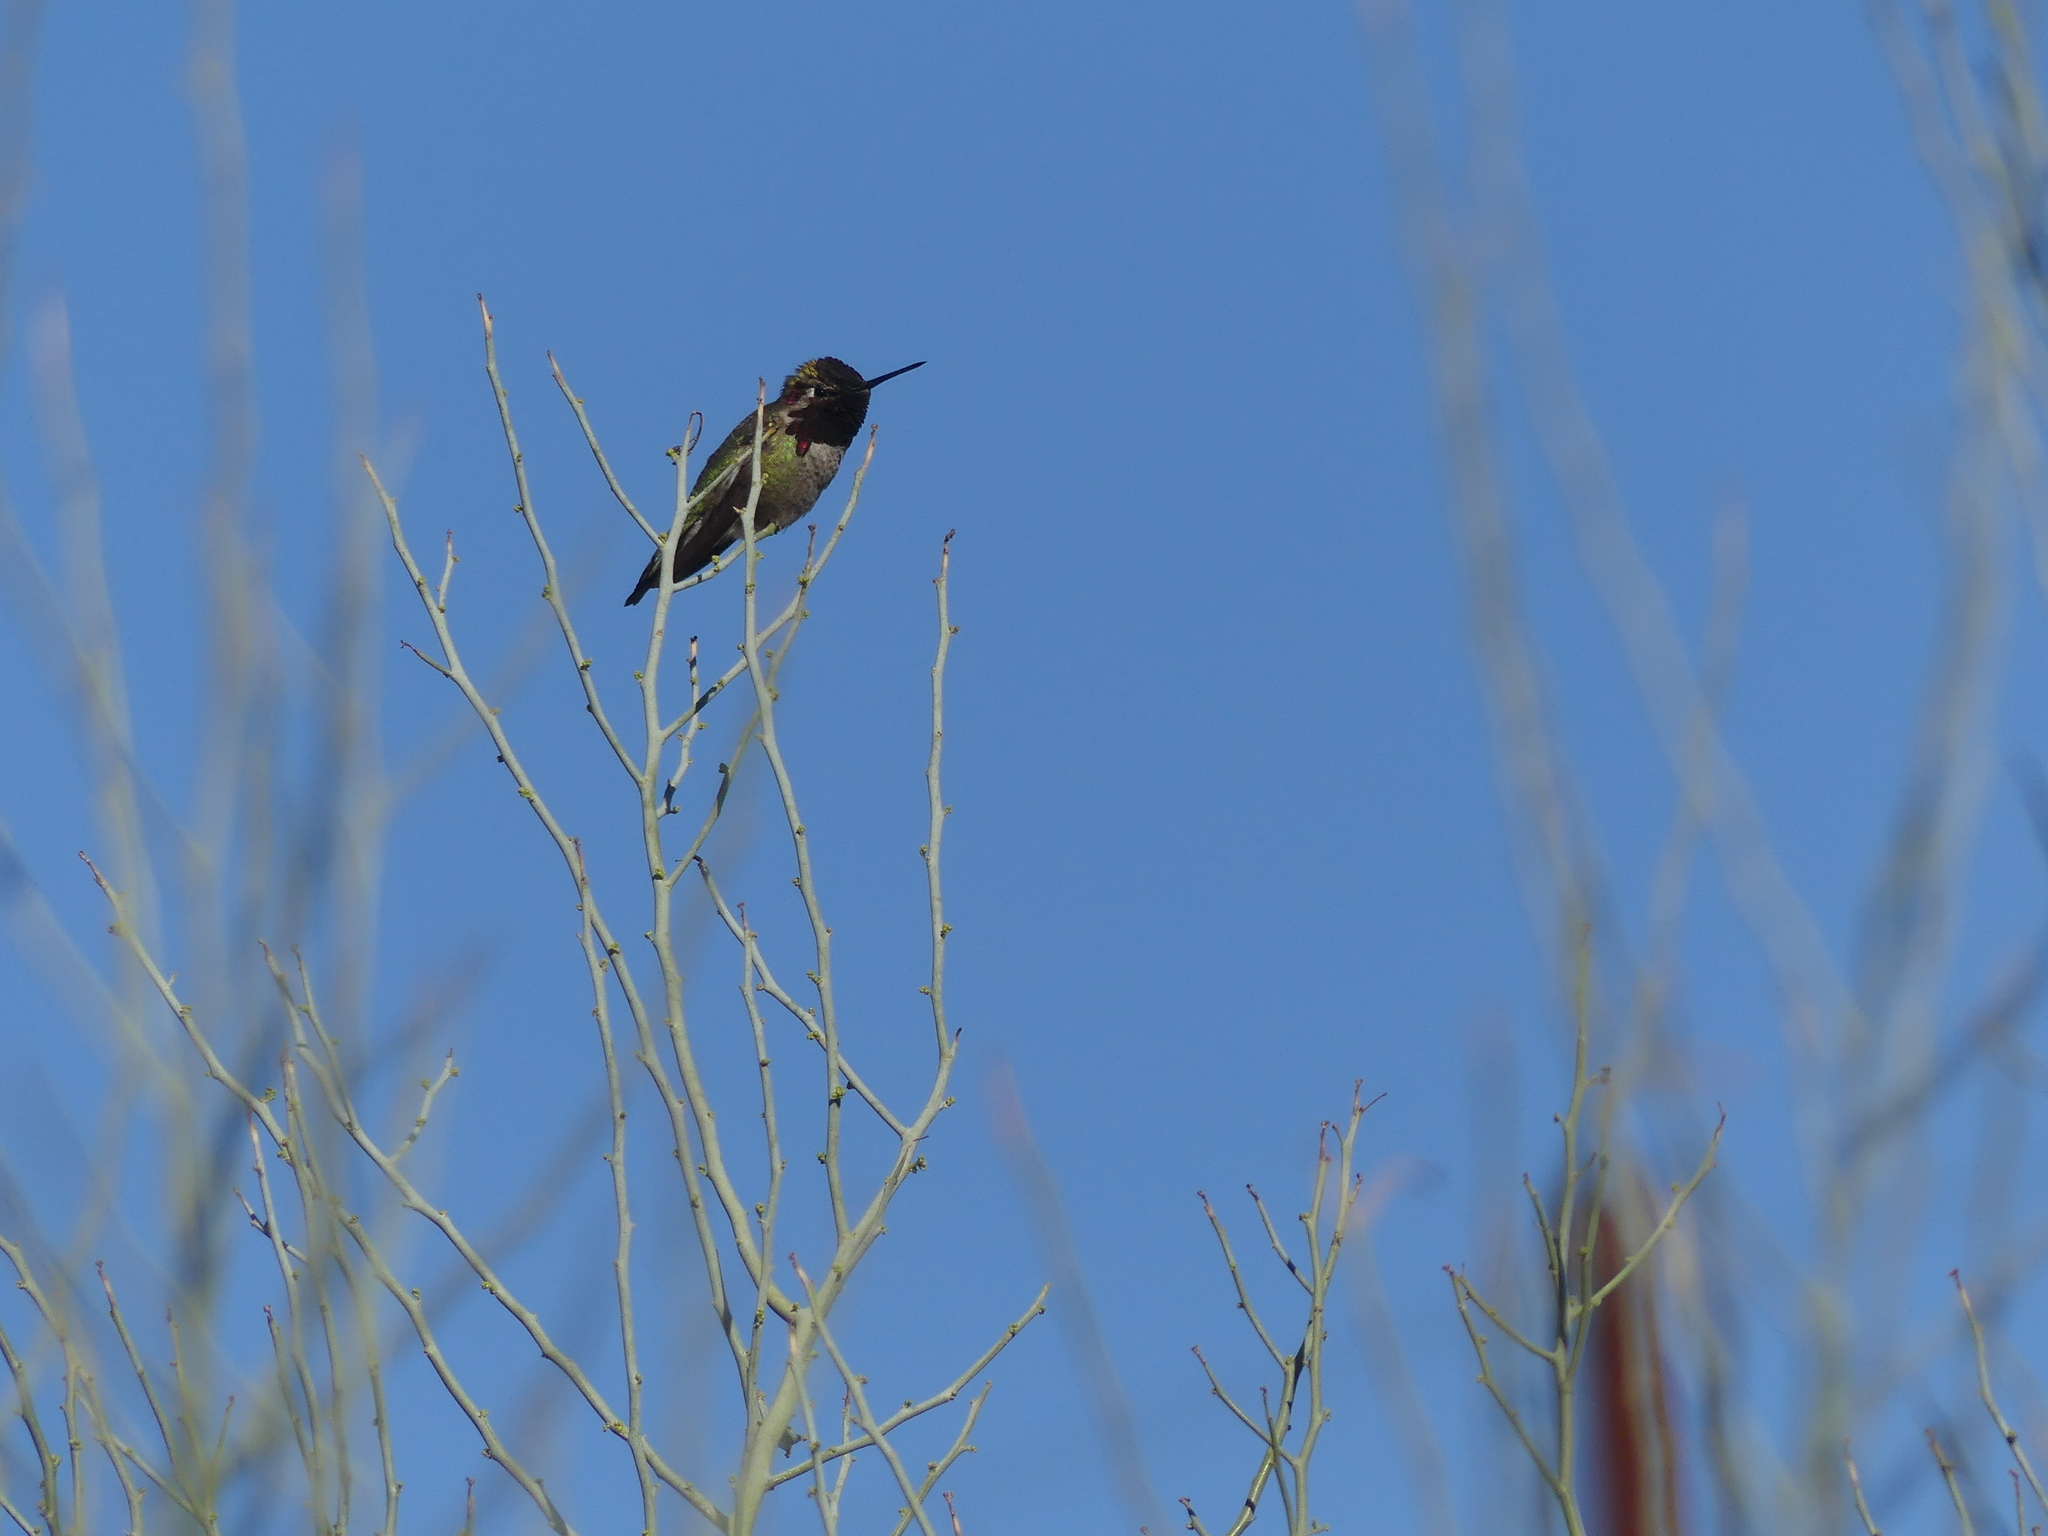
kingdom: Animalia
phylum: Chordata
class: Aves
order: Apodiformes
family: Trochilidae
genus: Calypte
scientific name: Calypte anna
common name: Anna's hummingbird
